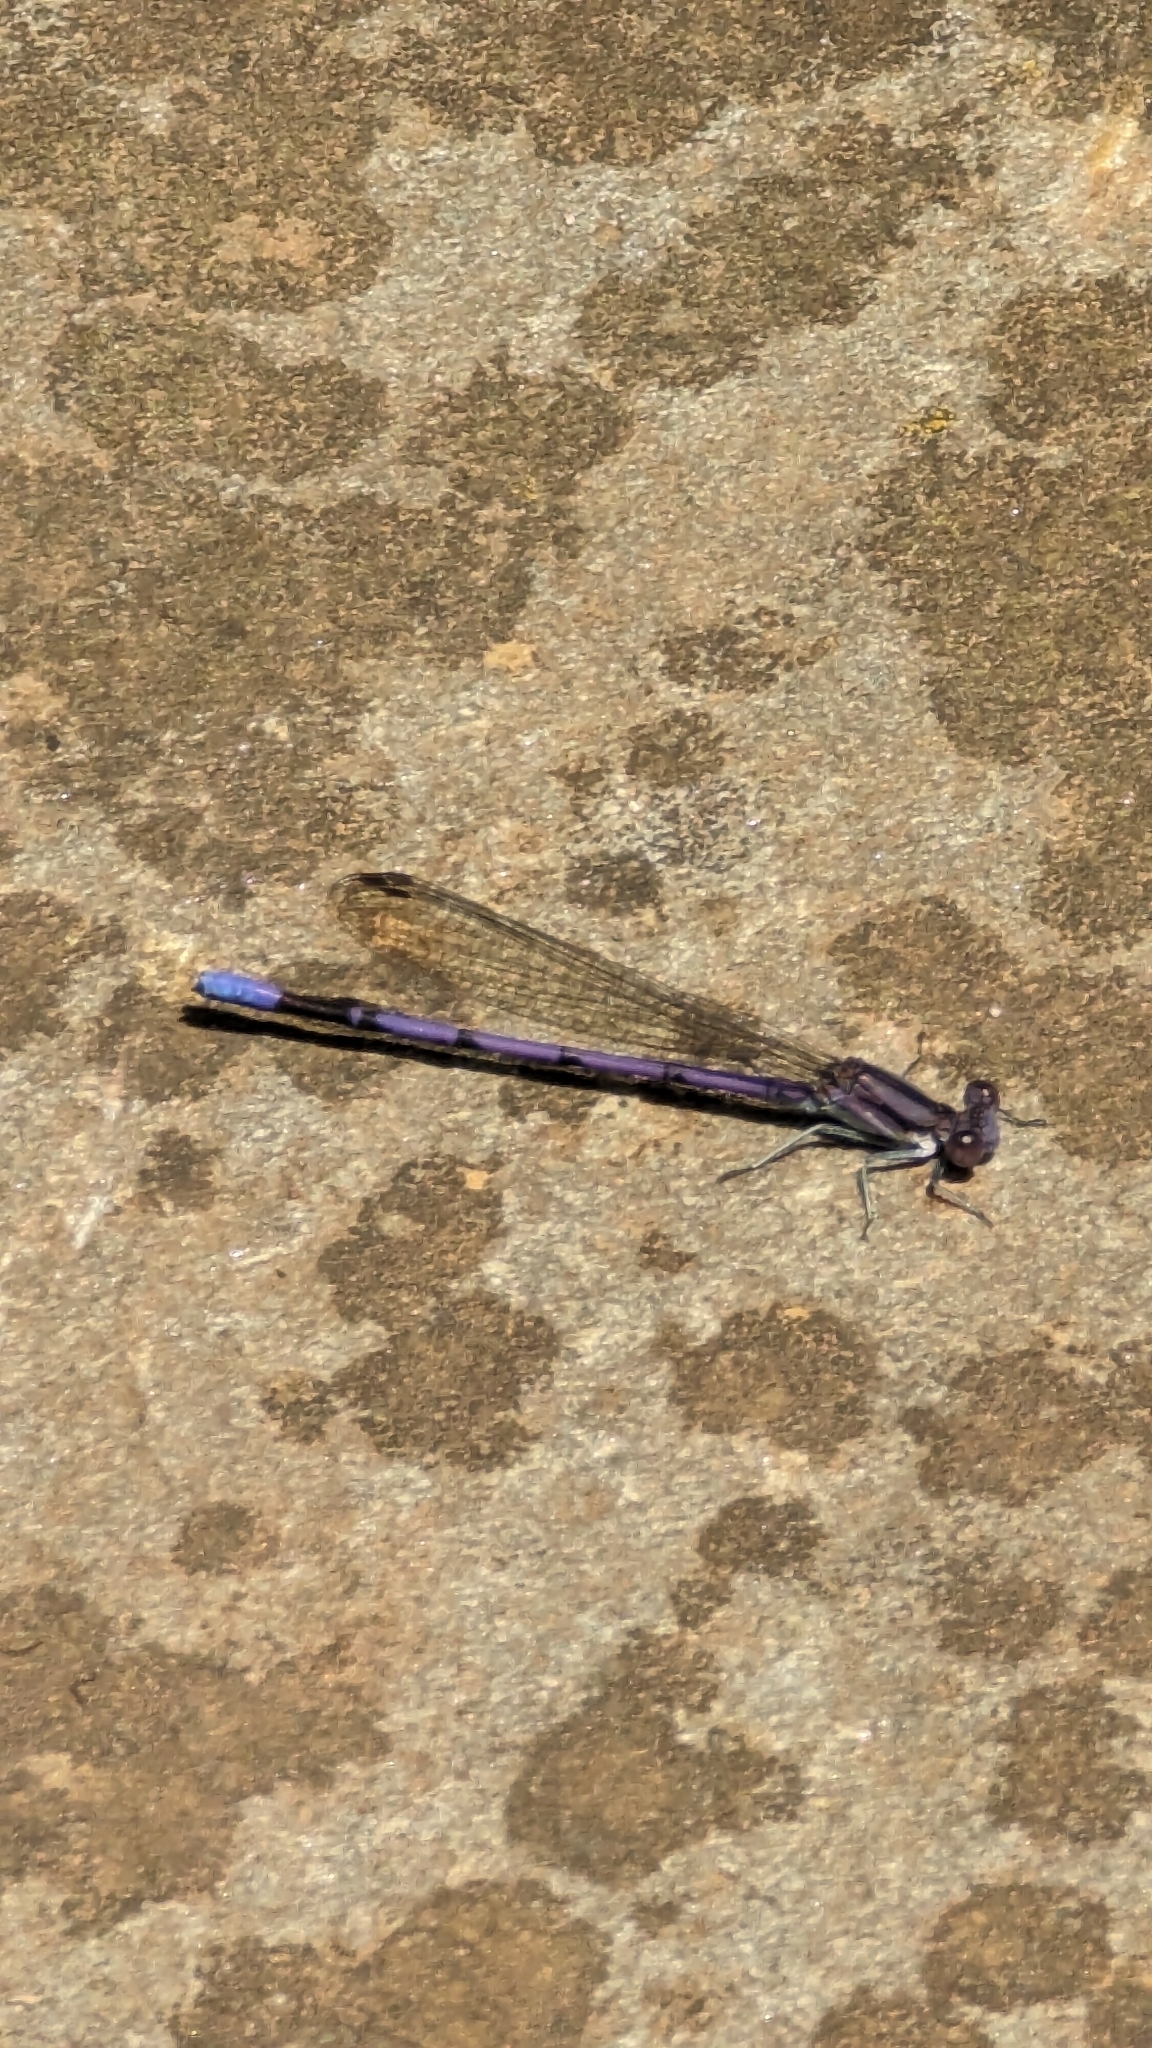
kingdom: Animalia
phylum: Arthropoda
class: Insecta
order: Odonata
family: Coenagrionidae
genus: Argia
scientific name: Argia fumipennis
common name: Variable dancer
